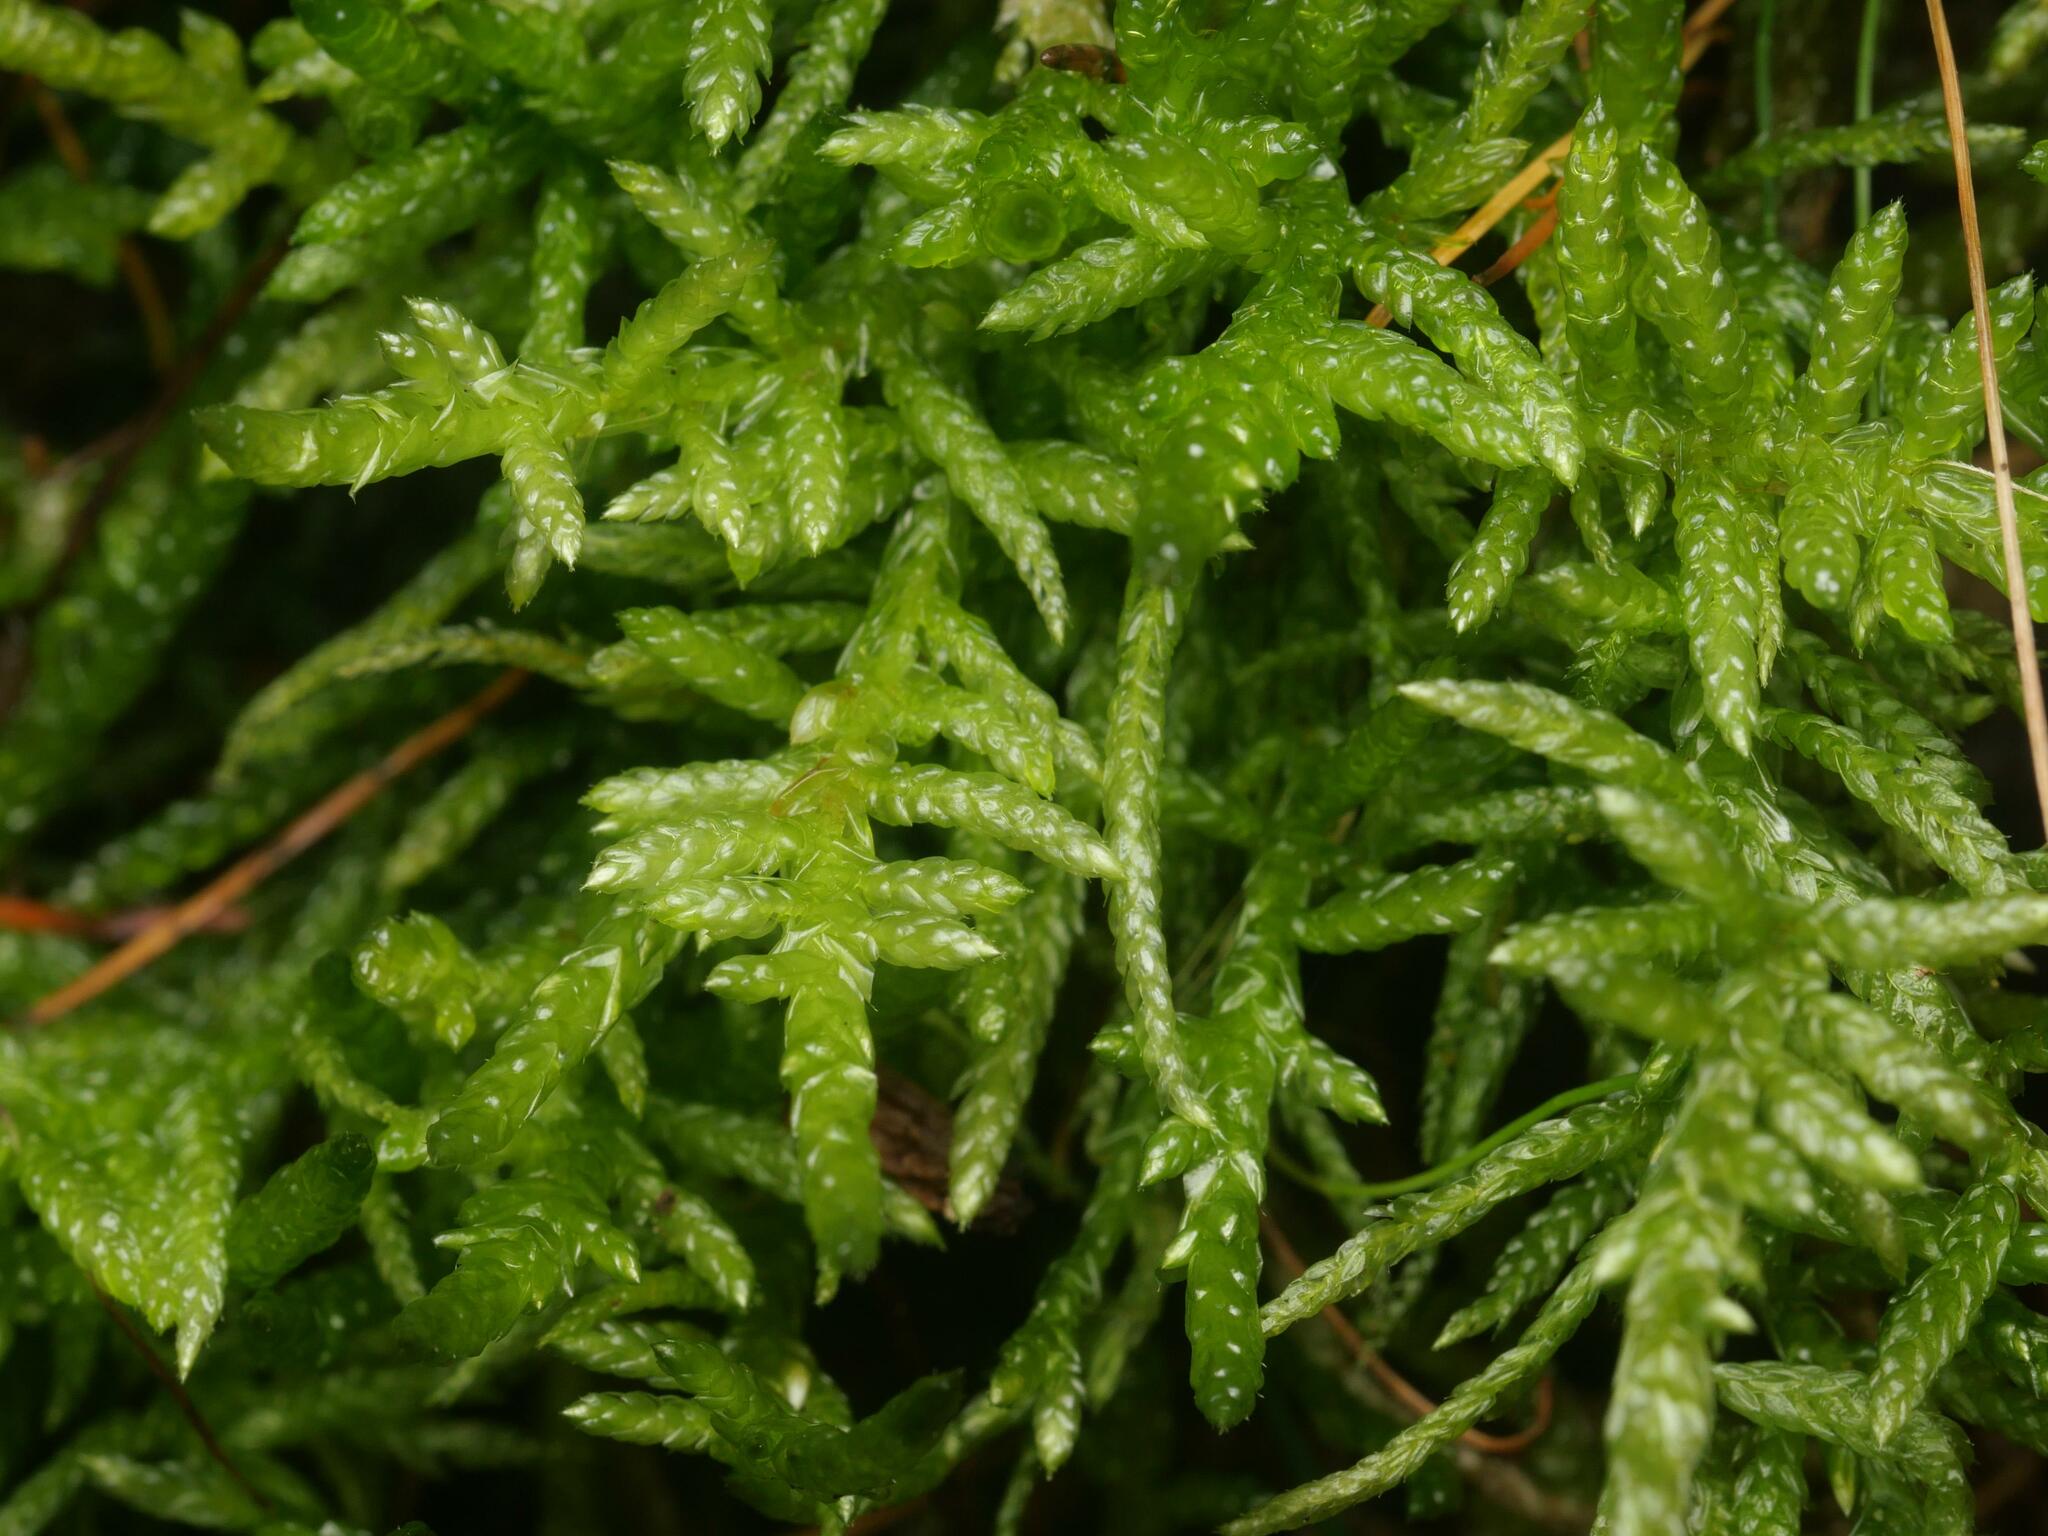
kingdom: Plantae
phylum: Bryophyta
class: Bryopsida
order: Hypnales
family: Brachytheciaceae
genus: Pseudoscleropodium
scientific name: Pseudoscleropodium purum
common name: Neat feather-moss
